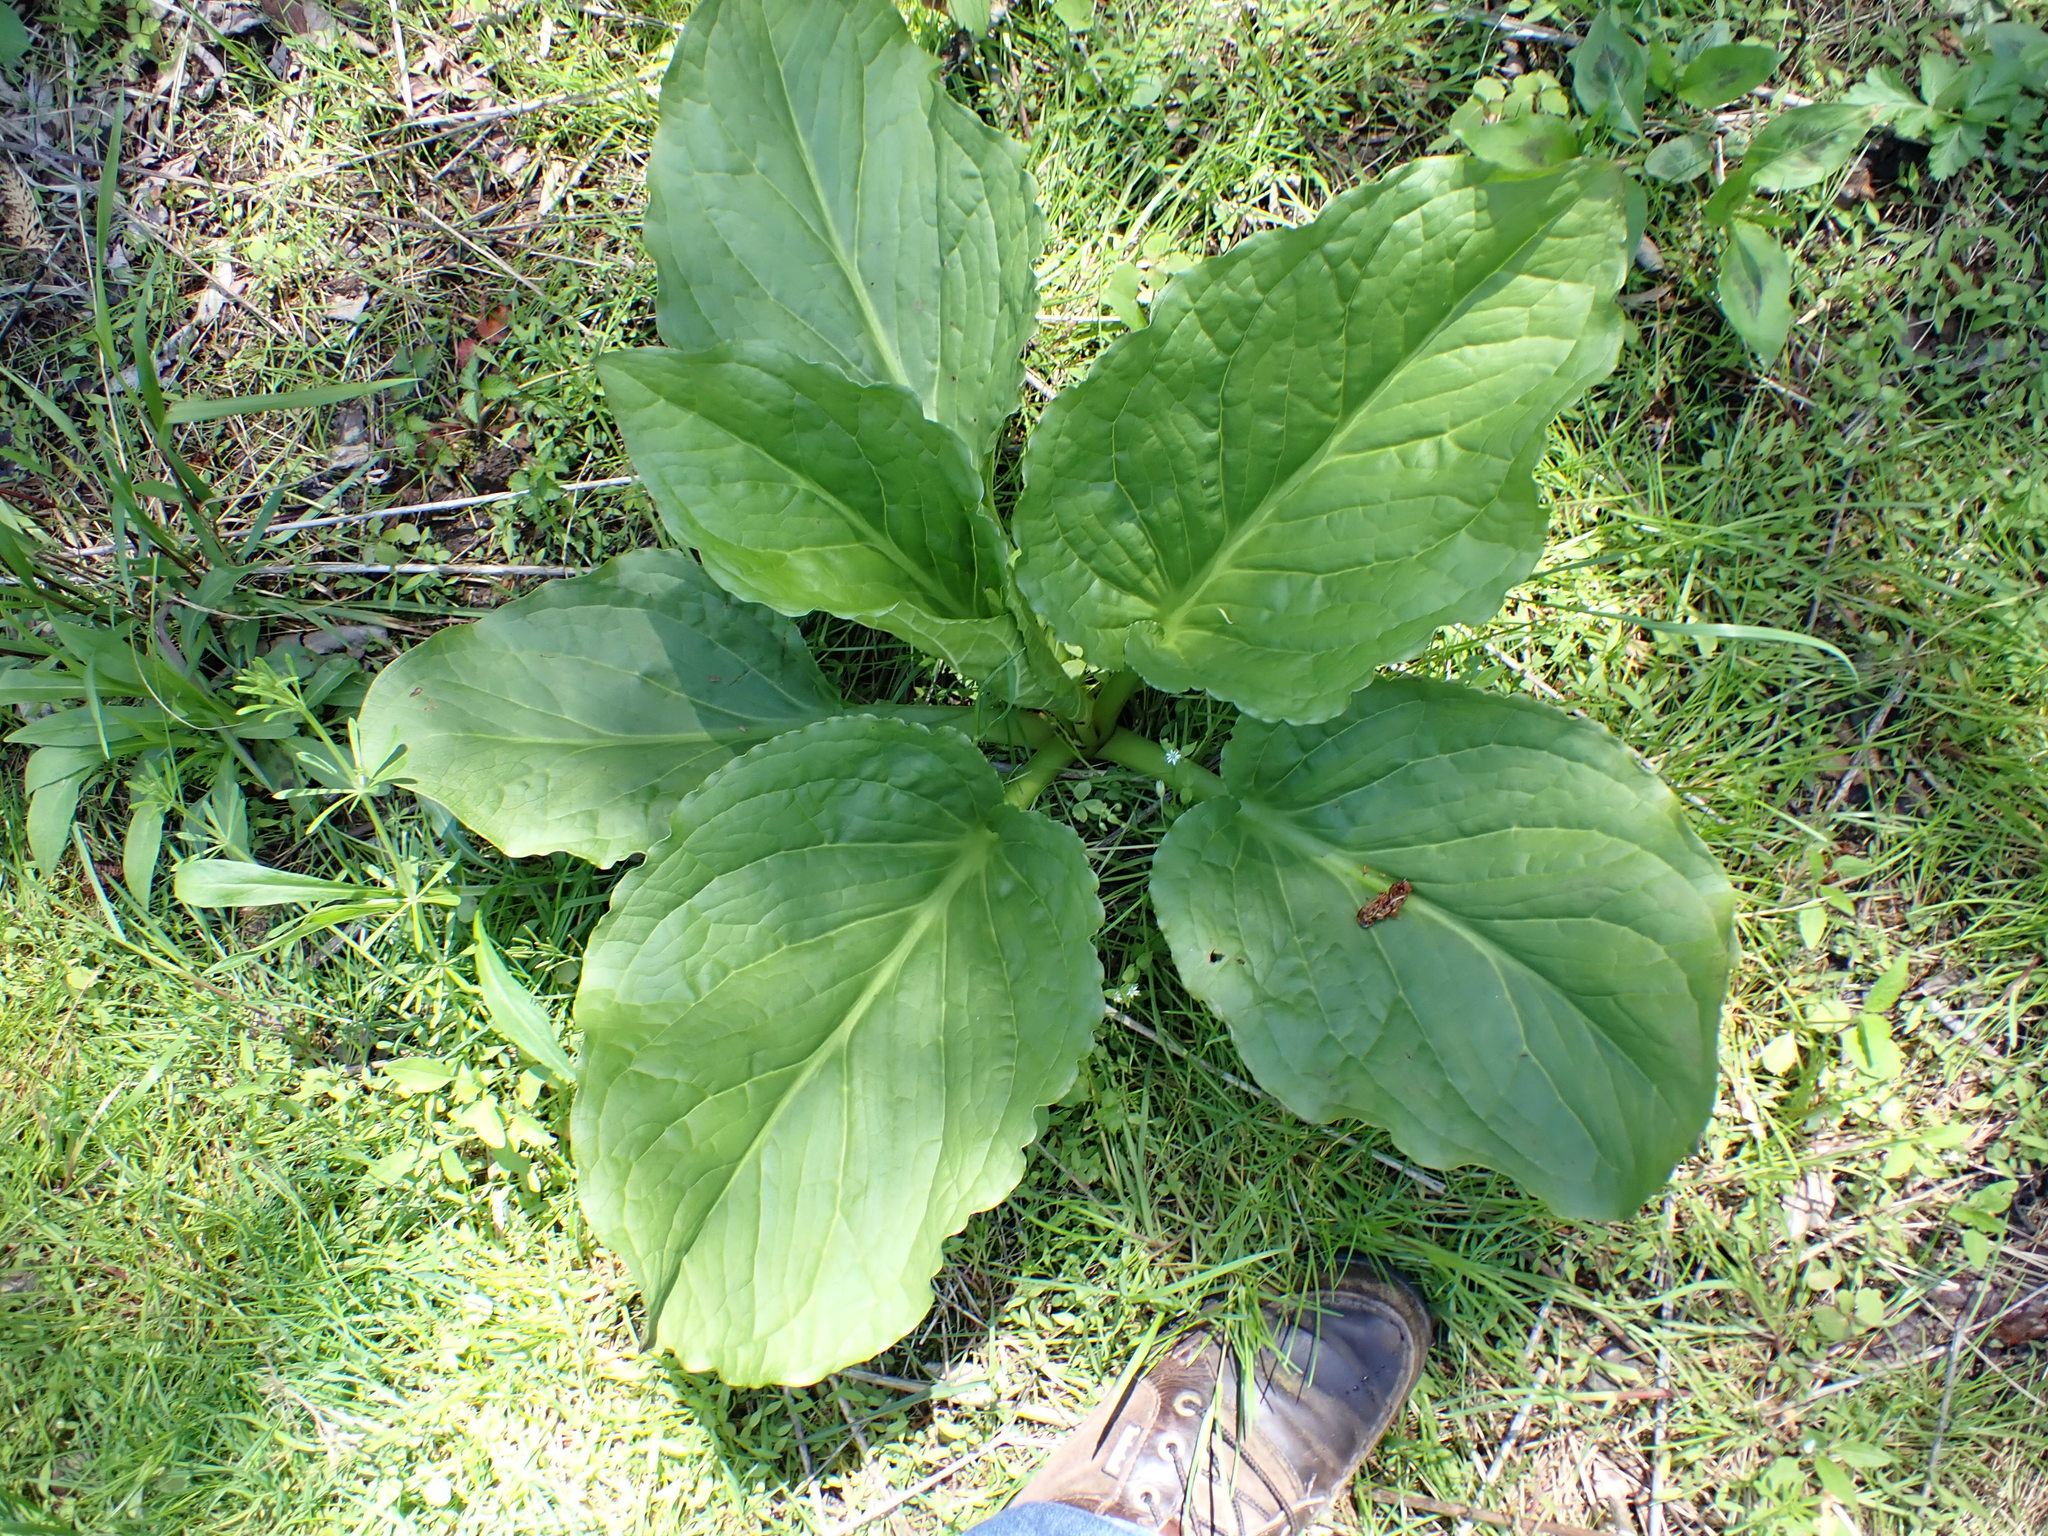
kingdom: Plantae
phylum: Tracheophyta
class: Liliopsida
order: Alismatales
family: Araceae
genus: Symplocarpus
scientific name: Symplocarpus foetidus
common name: Eastern skunk cabbage
